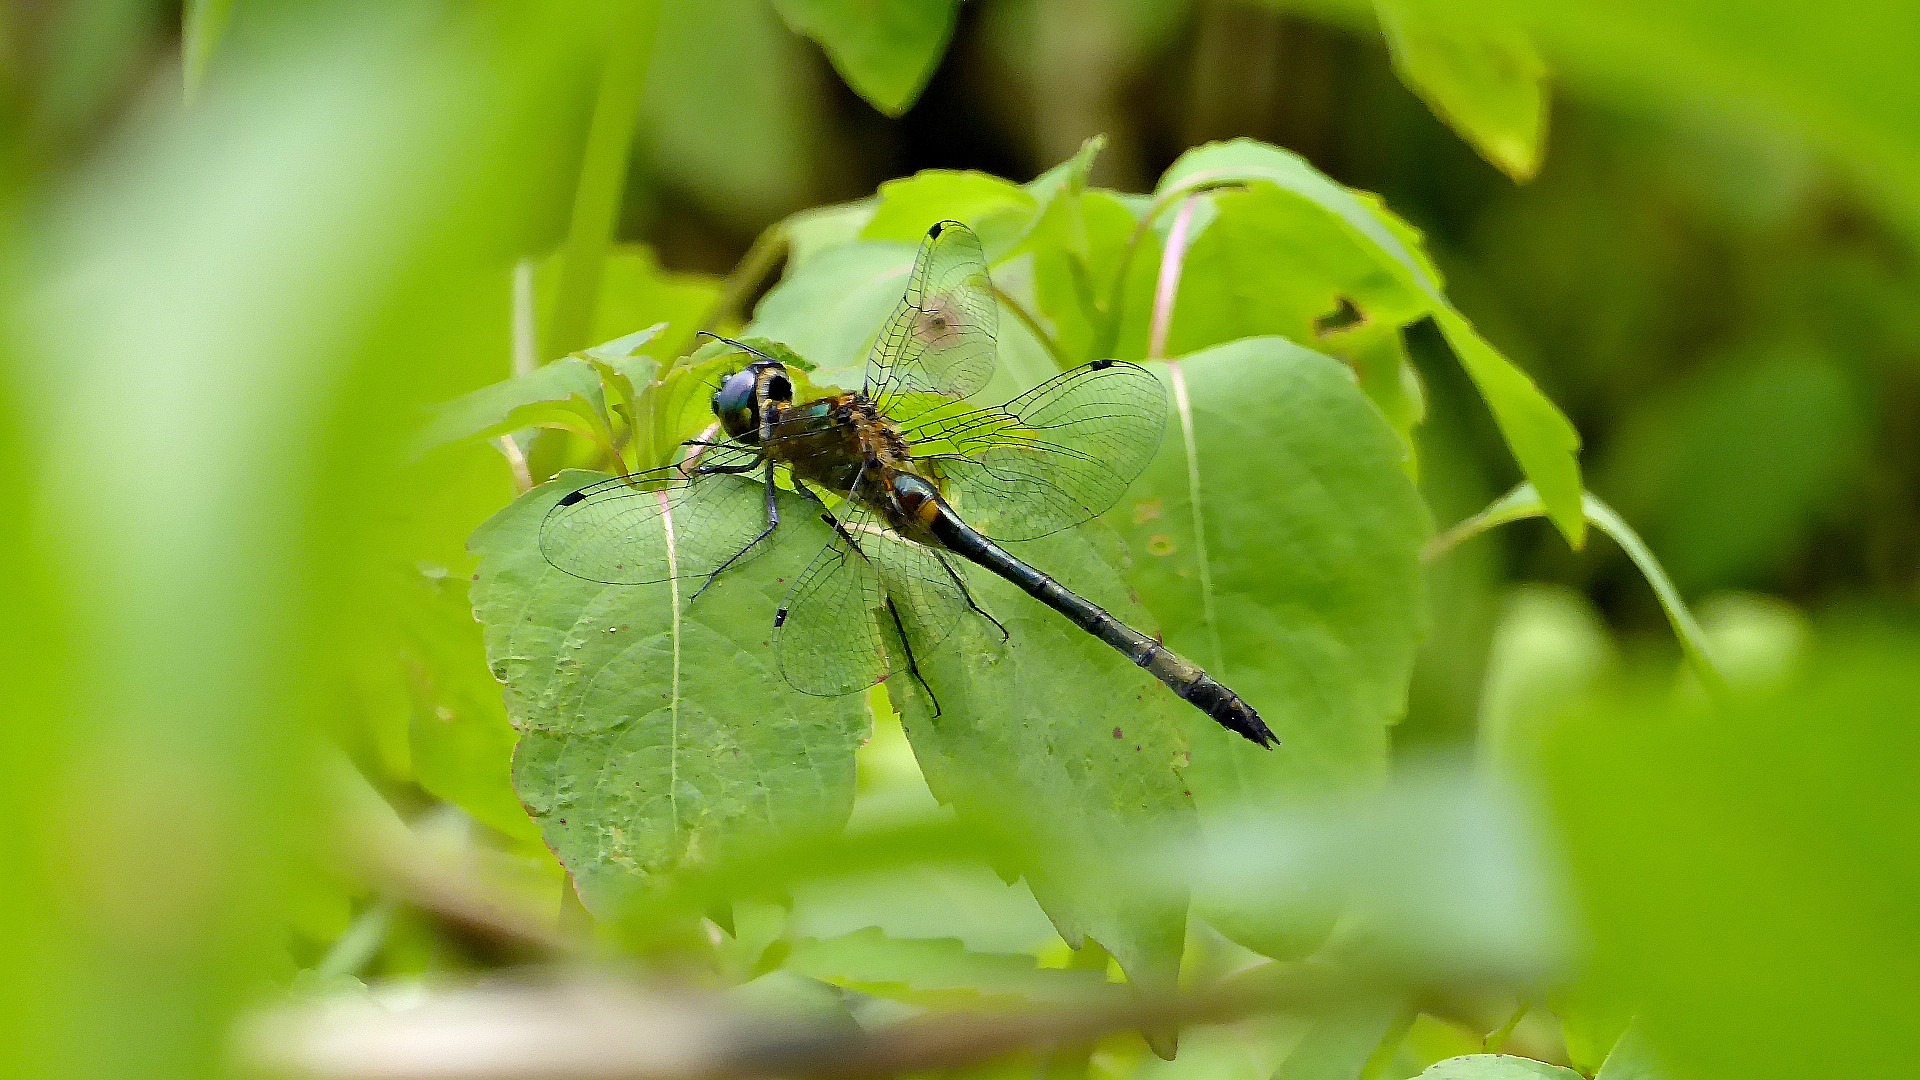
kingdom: Animalia
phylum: Arthropoda
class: Insecta
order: Odonata
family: Corduliidae
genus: Dorocordulia
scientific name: Dorocordulia libera
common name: Racket-tailed emerald
